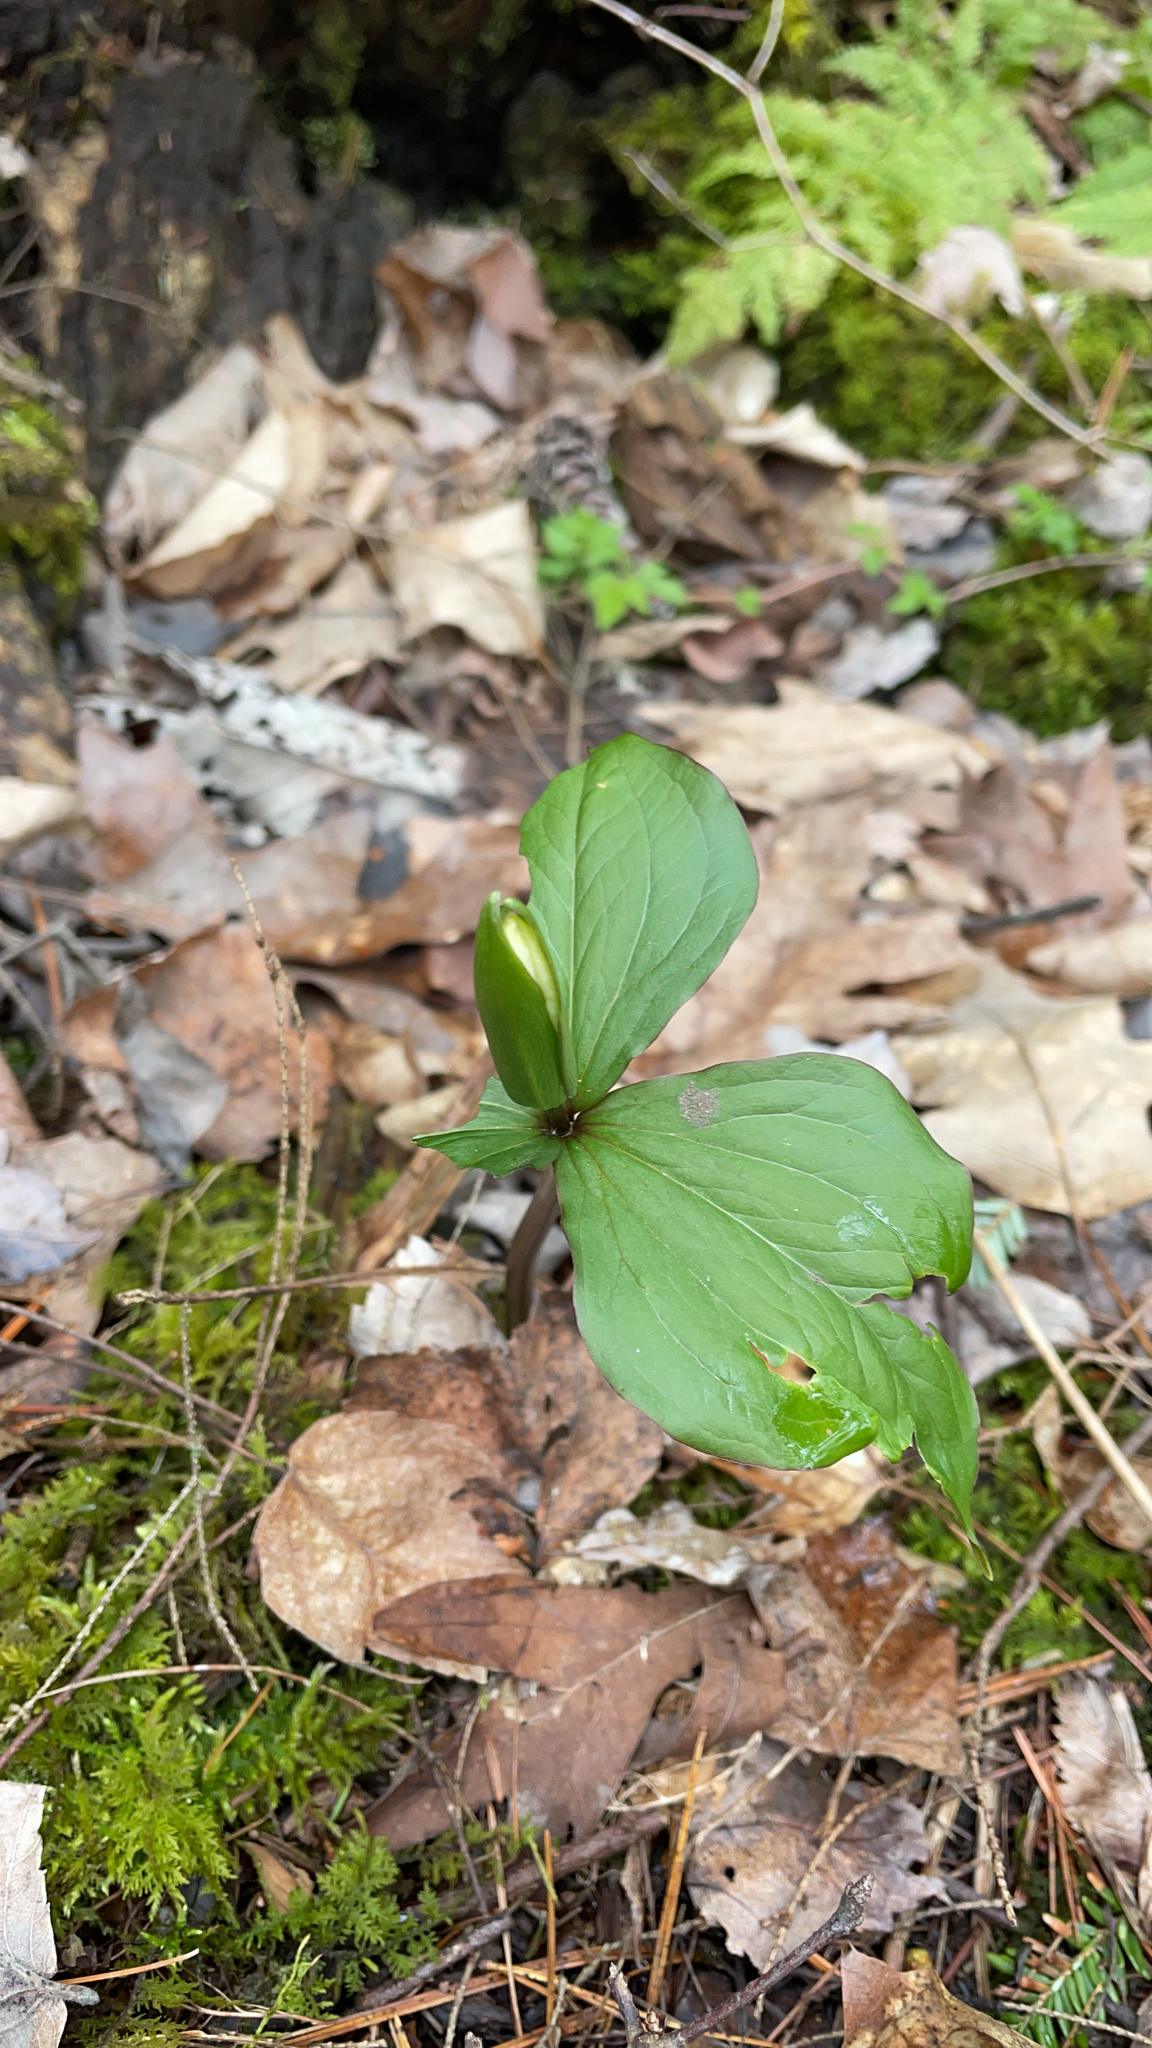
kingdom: Plantae
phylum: Tracheophyta
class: Liliopsida
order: Liliales
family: Melanthiaceae
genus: Trillium
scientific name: Trillium grandiflorum
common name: Great white trillium
